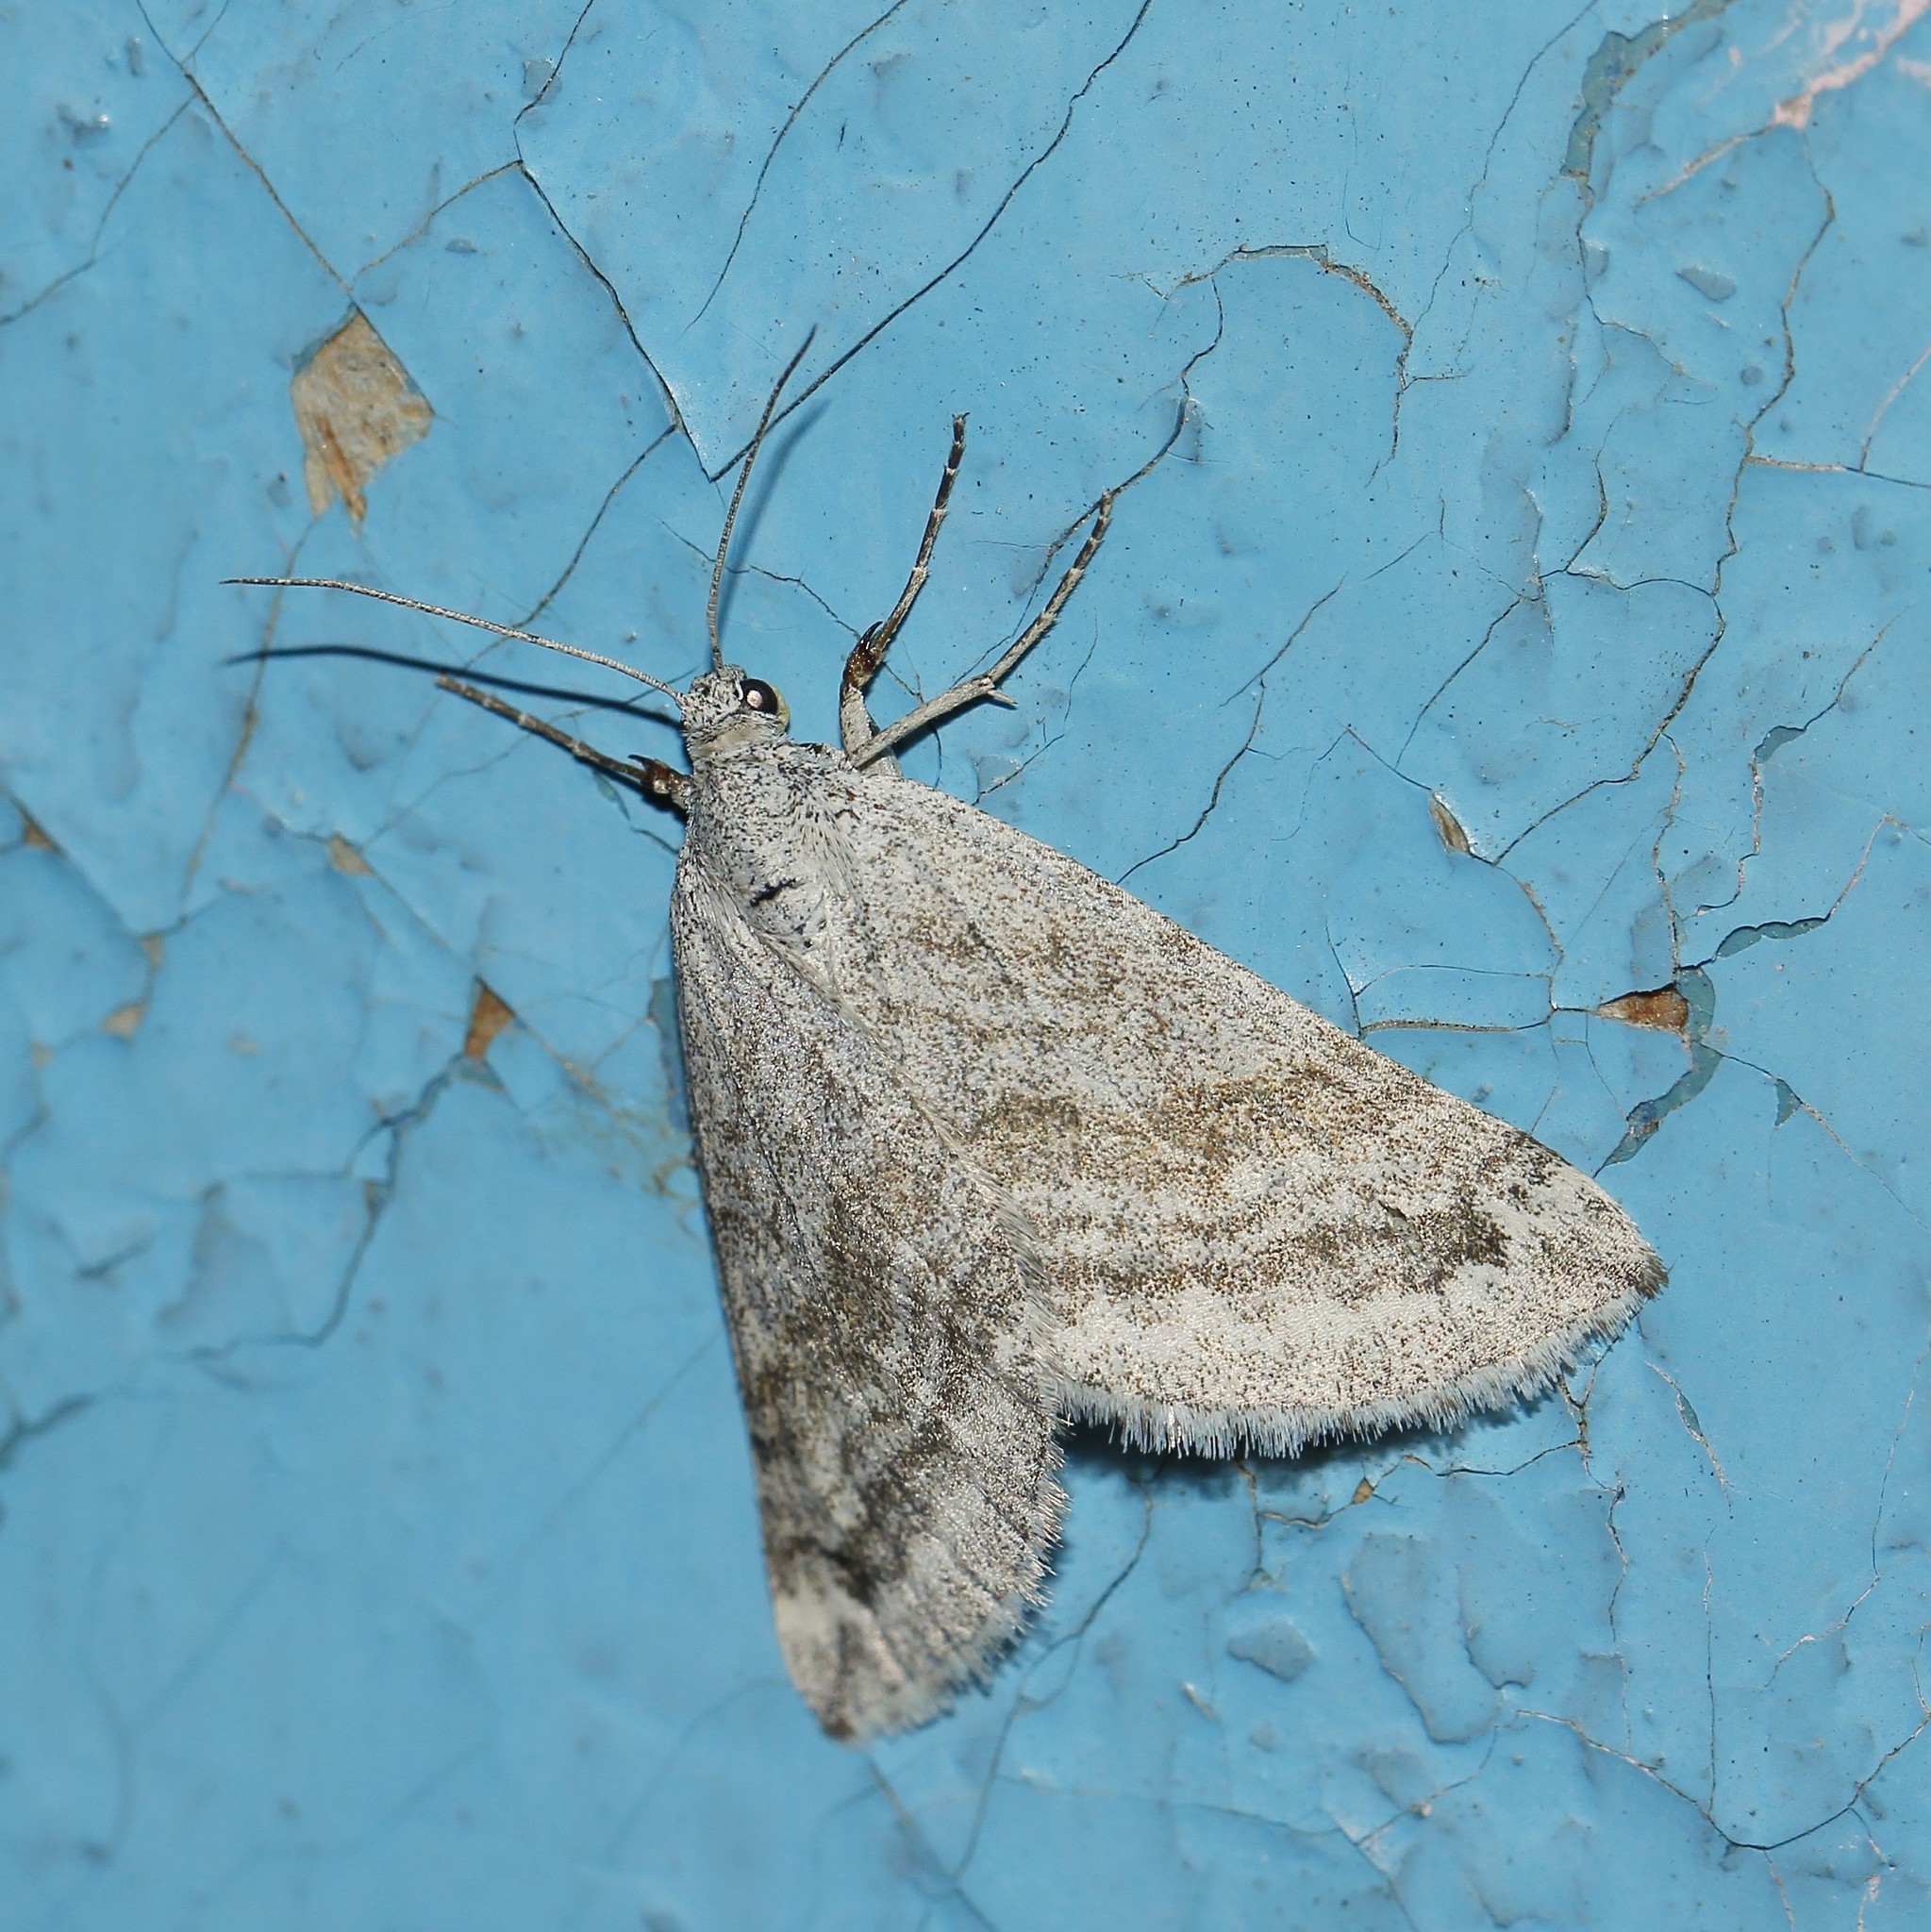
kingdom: Animalia
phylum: Arthropoda
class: Insecta
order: Lepidoptera
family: Geometridae
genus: Lithostege
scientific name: Lithostege coassata
